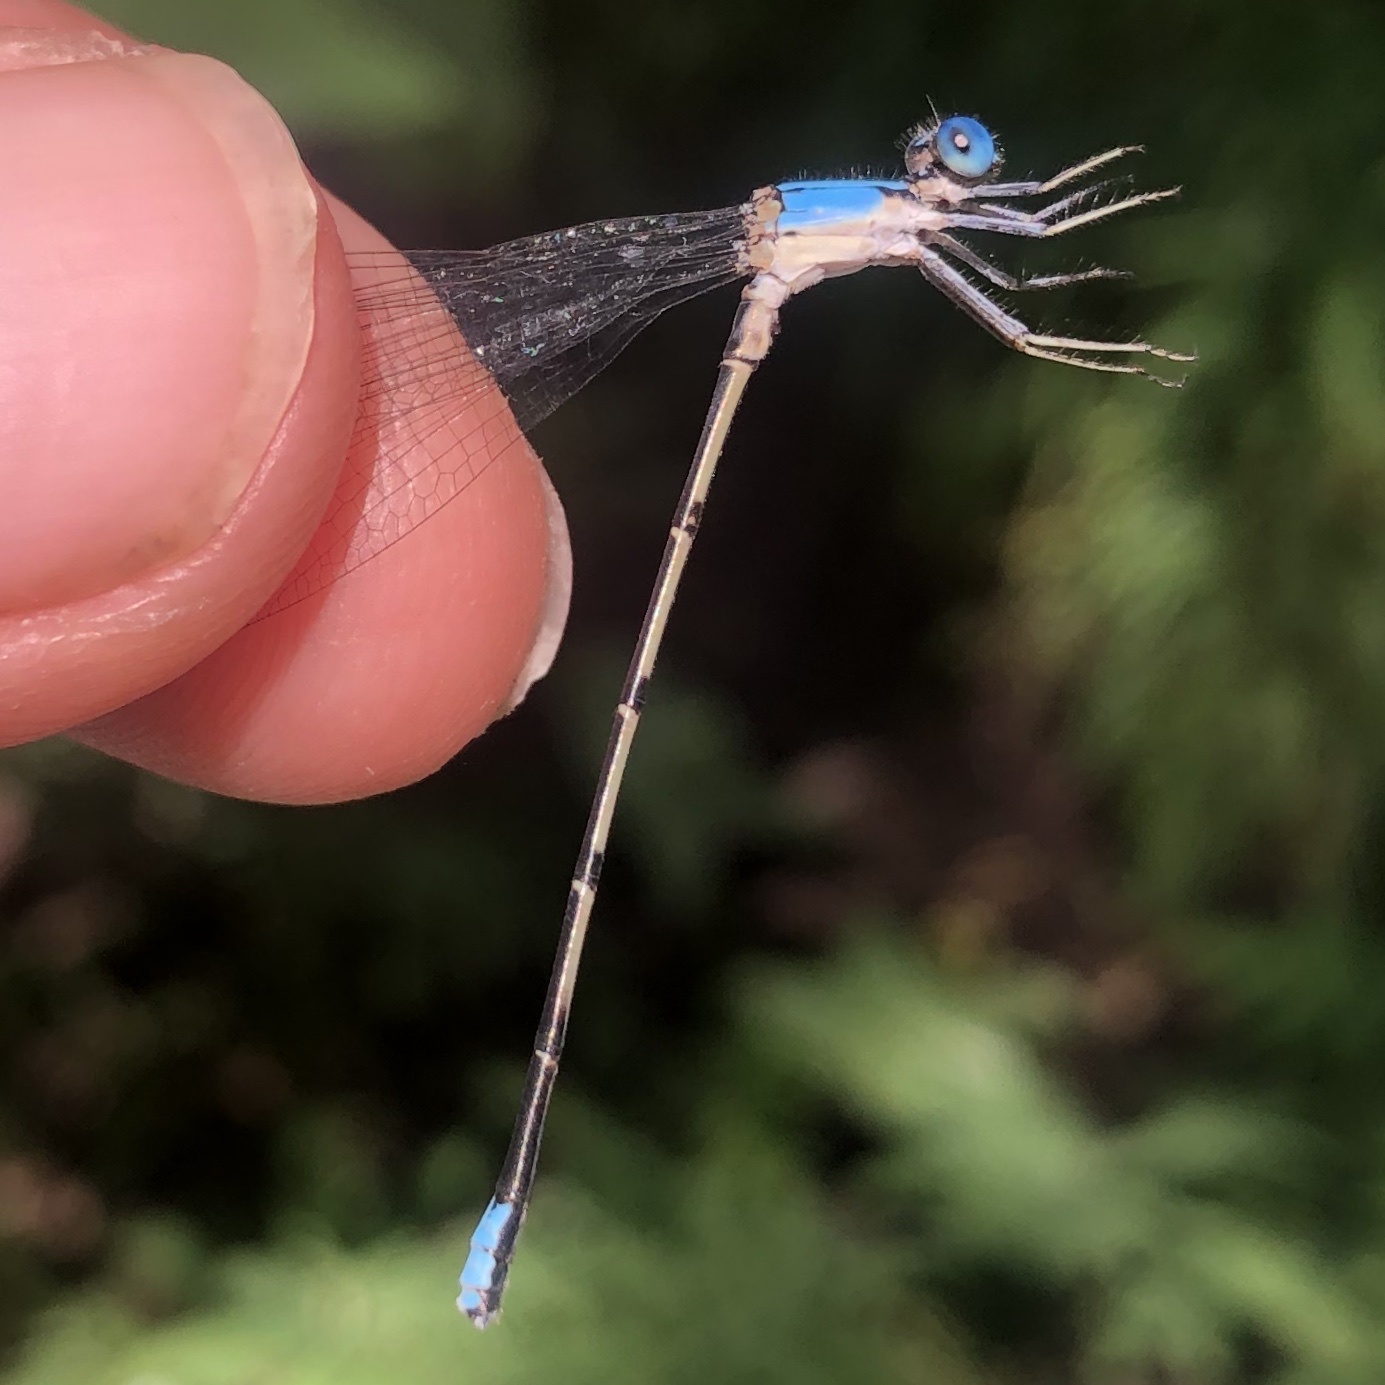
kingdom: Animalia
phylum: Arthropoda
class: Insecta
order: Odonata
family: Coenagrionidae
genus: Argia
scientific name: Argia apicalis
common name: Blue-fronted dancer
